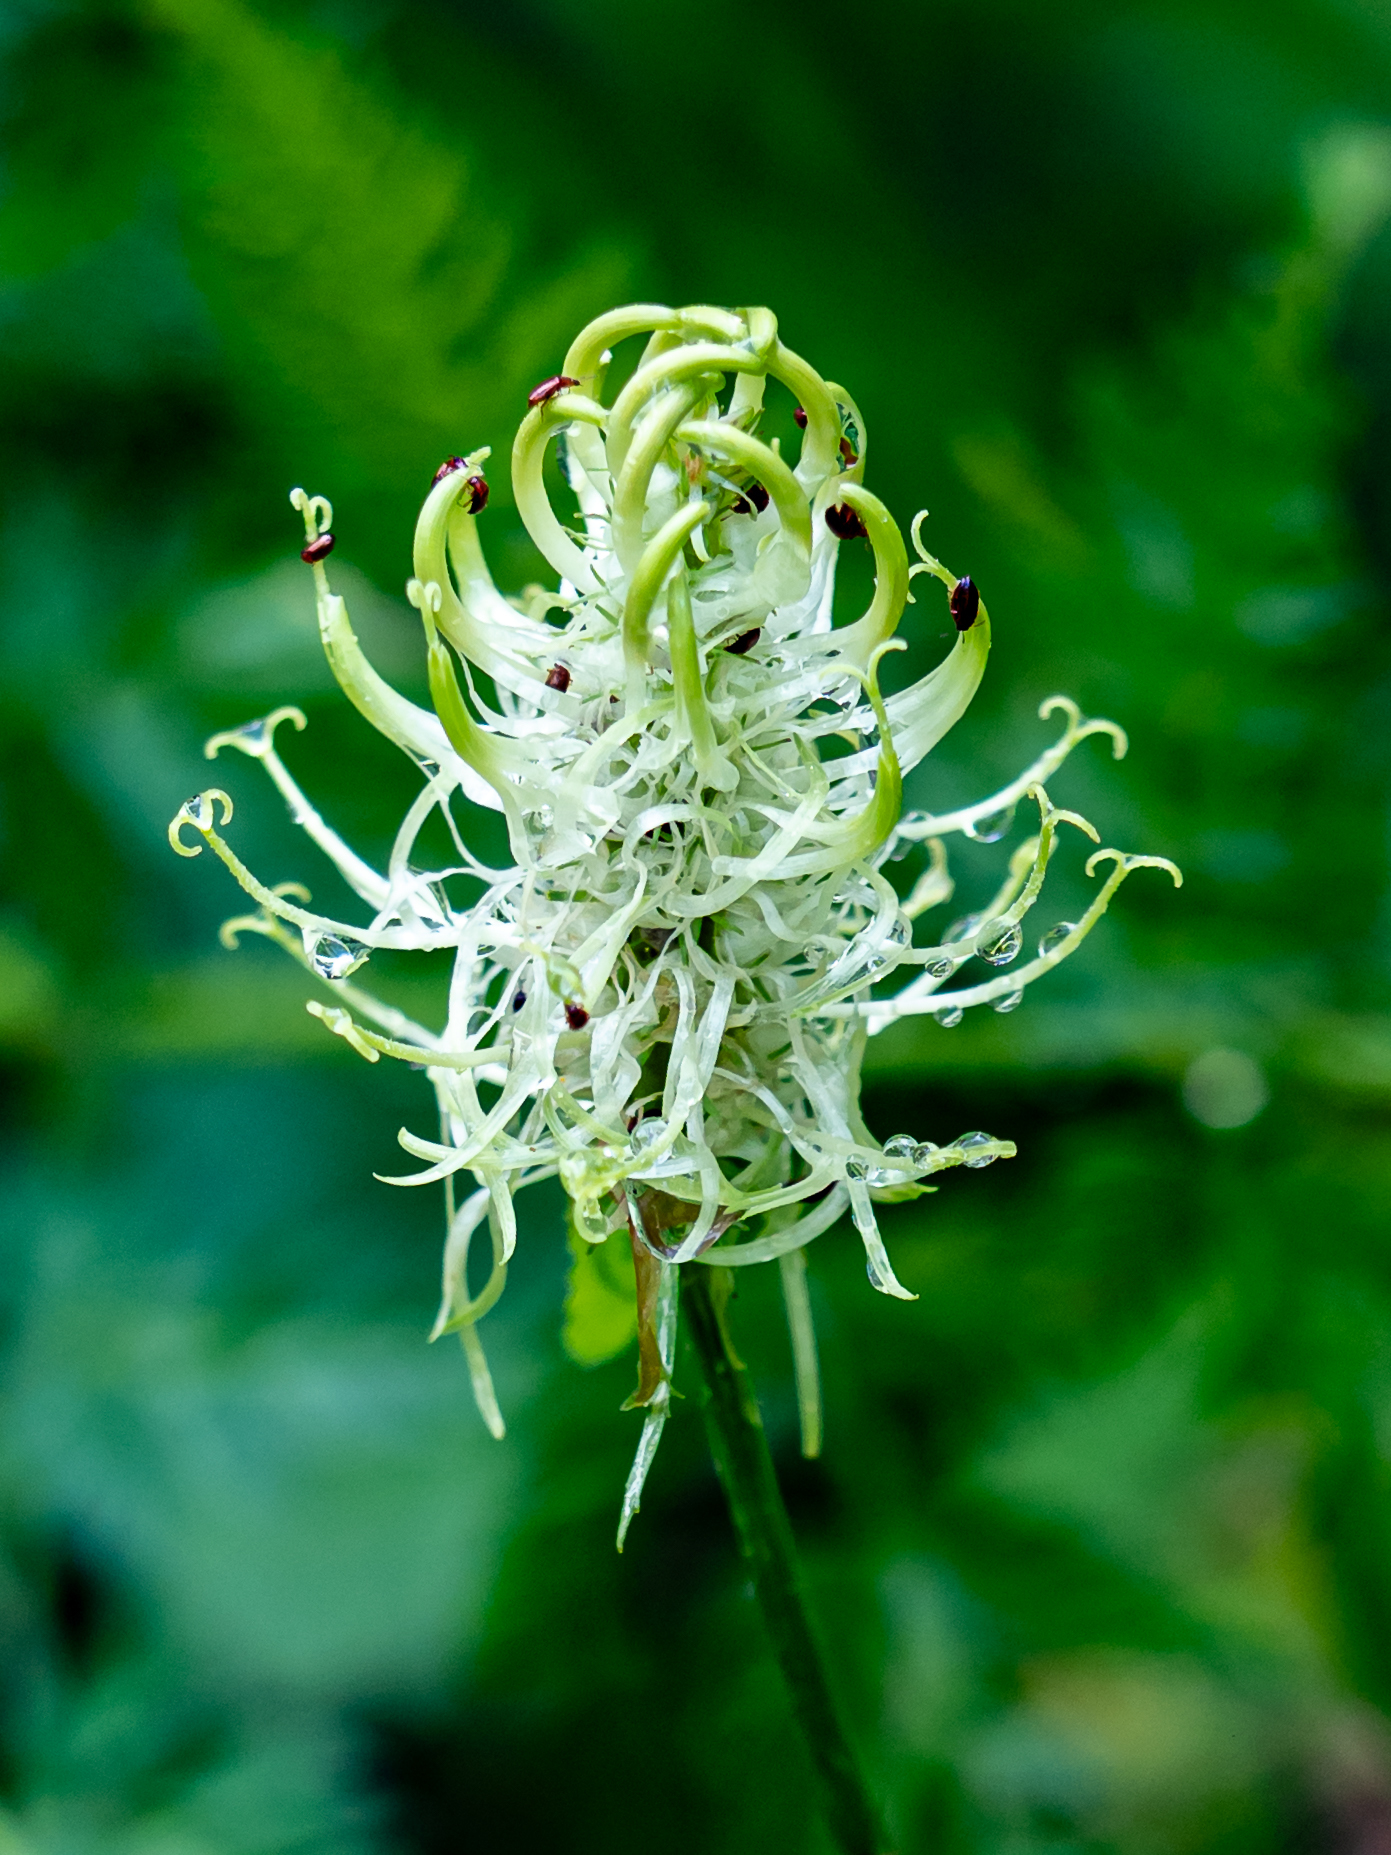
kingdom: Plantae
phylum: Tracheophyta
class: Magnoliopsida
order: Asterales
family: Campanulaceae
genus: Phyteuma
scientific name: Phyteuma spicatum
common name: Spiked rampion
